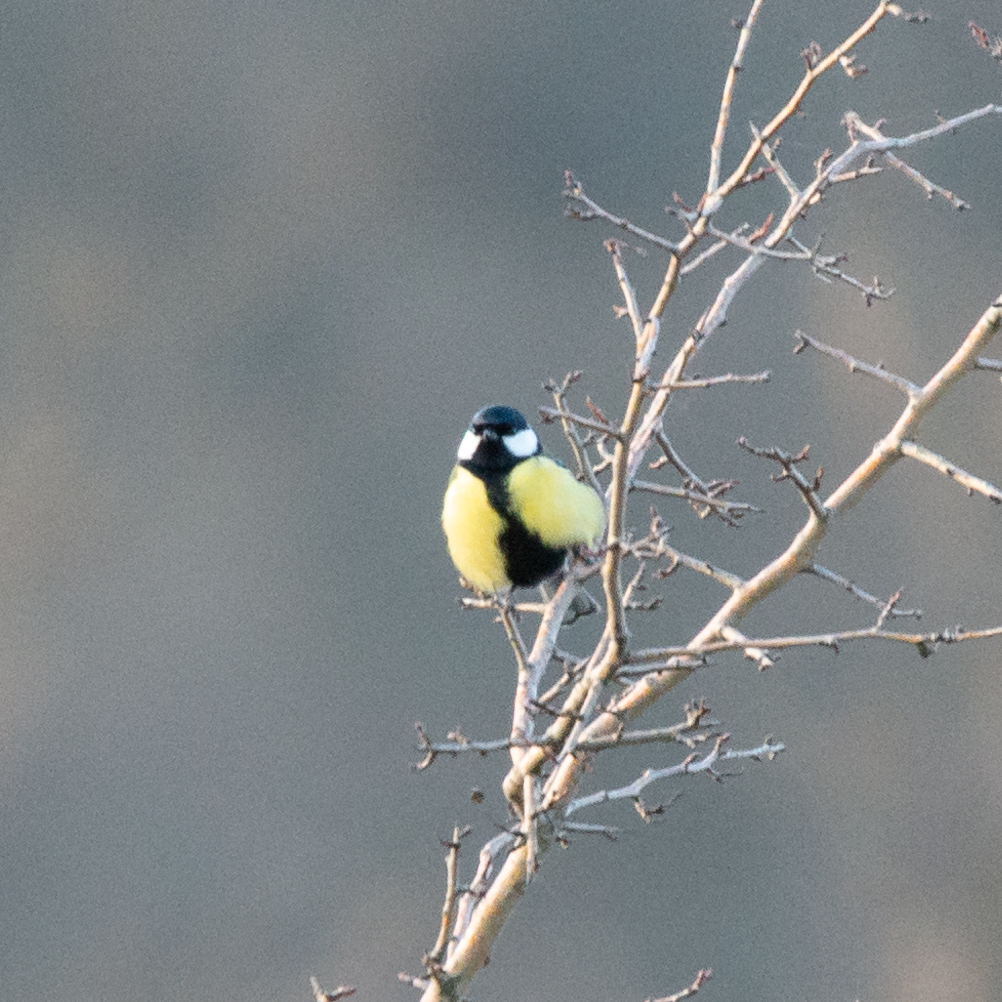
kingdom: Animalia
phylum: Chordata
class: Aves
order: Passeriformes
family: Paridae
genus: Parus
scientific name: Parus major
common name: Great tit
